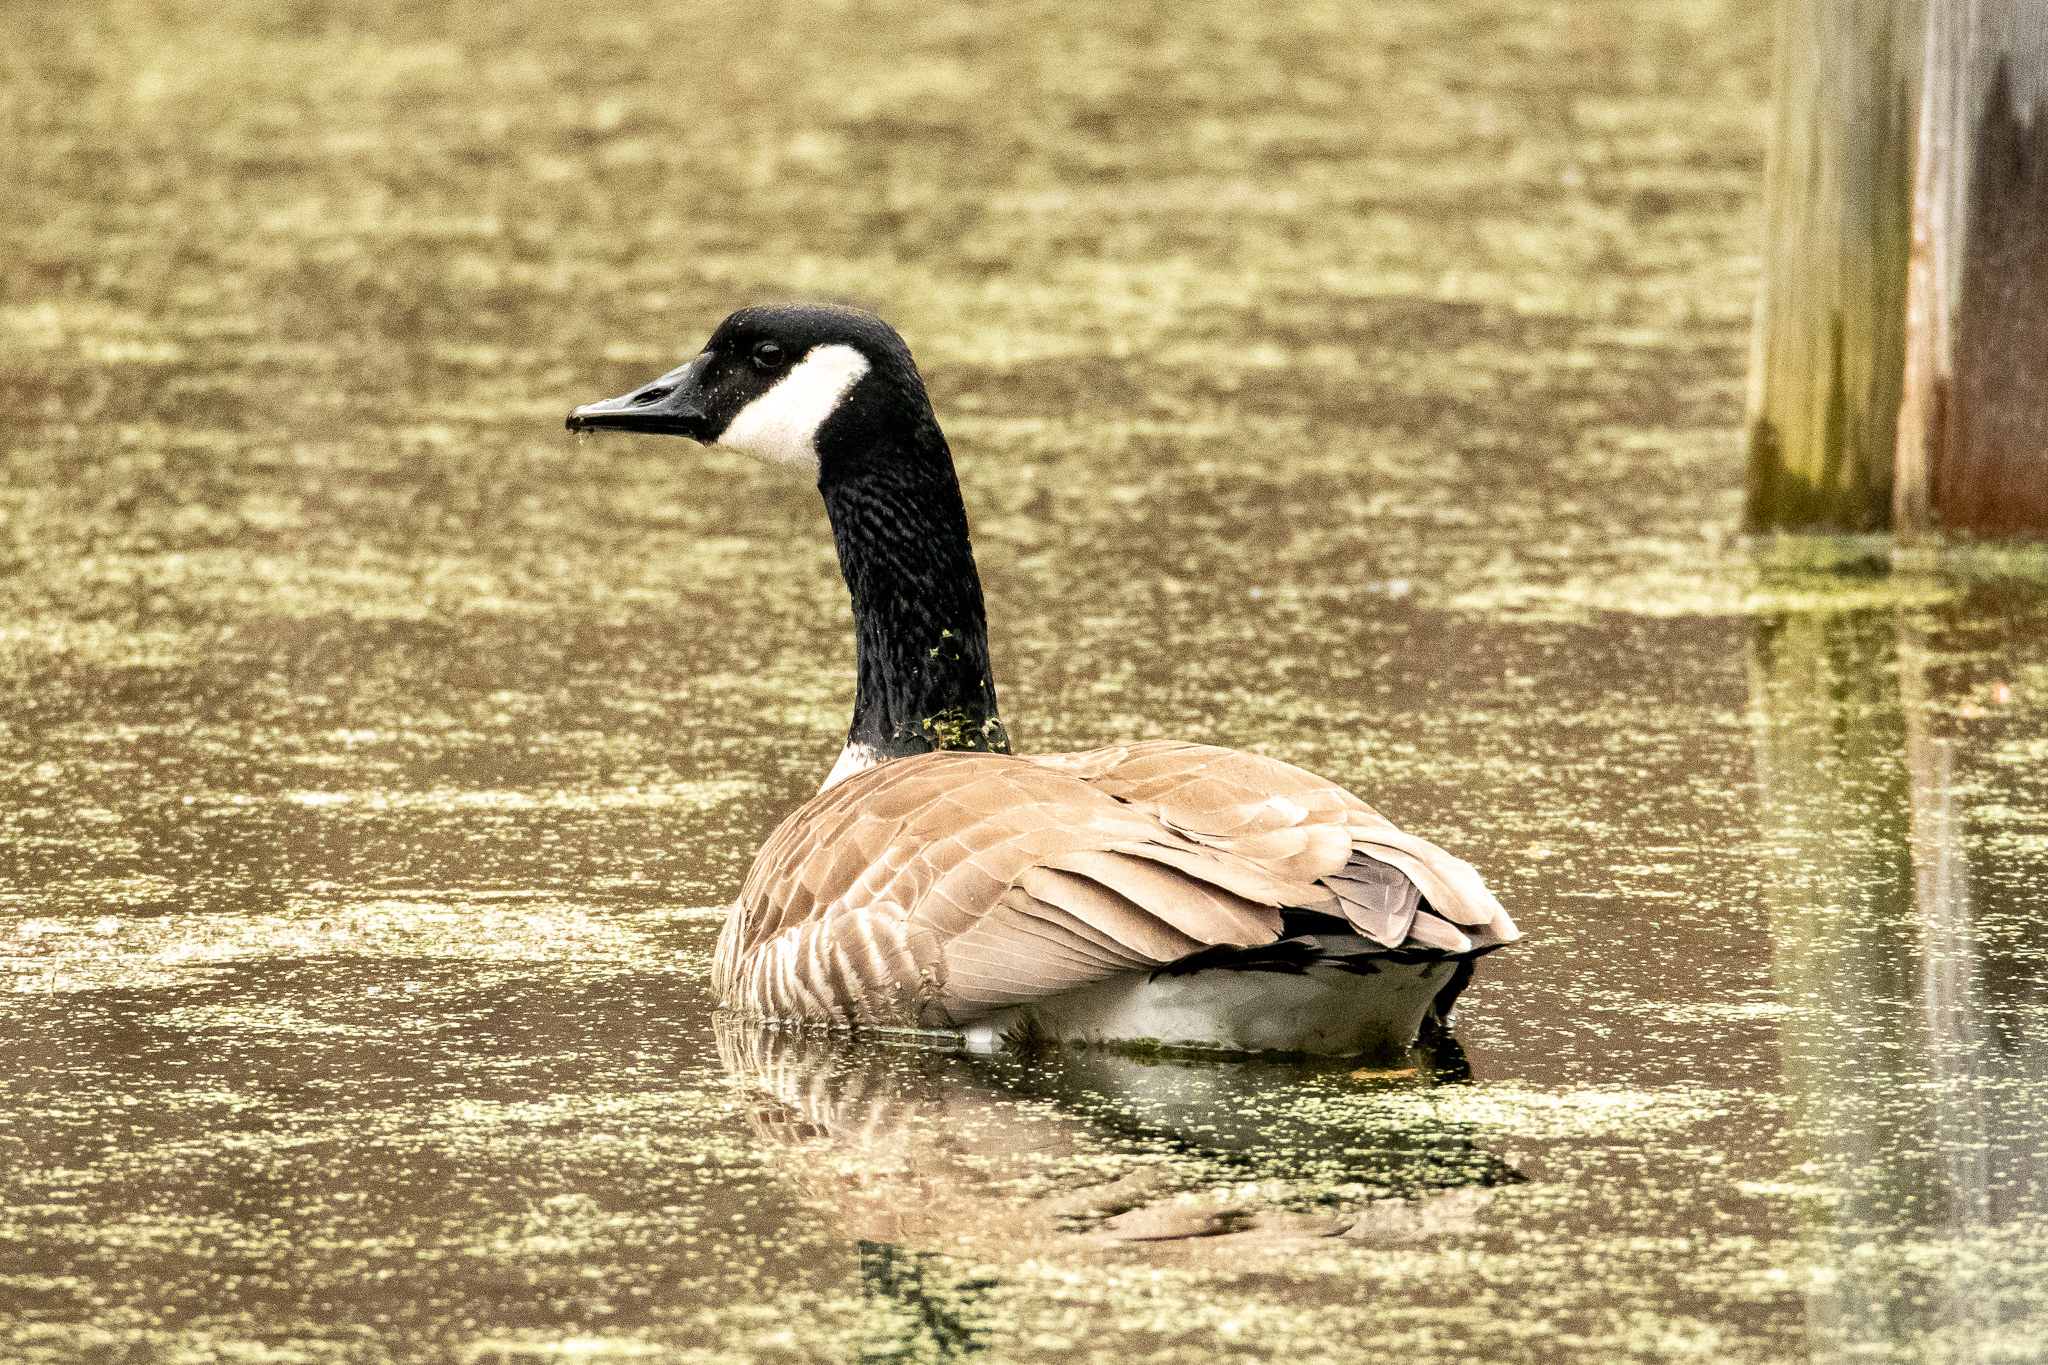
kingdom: Animalia
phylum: Chordata
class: Aves
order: Anseriformes
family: Anatidae
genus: Branta
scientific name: Branta canadensis
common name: Canada goose
